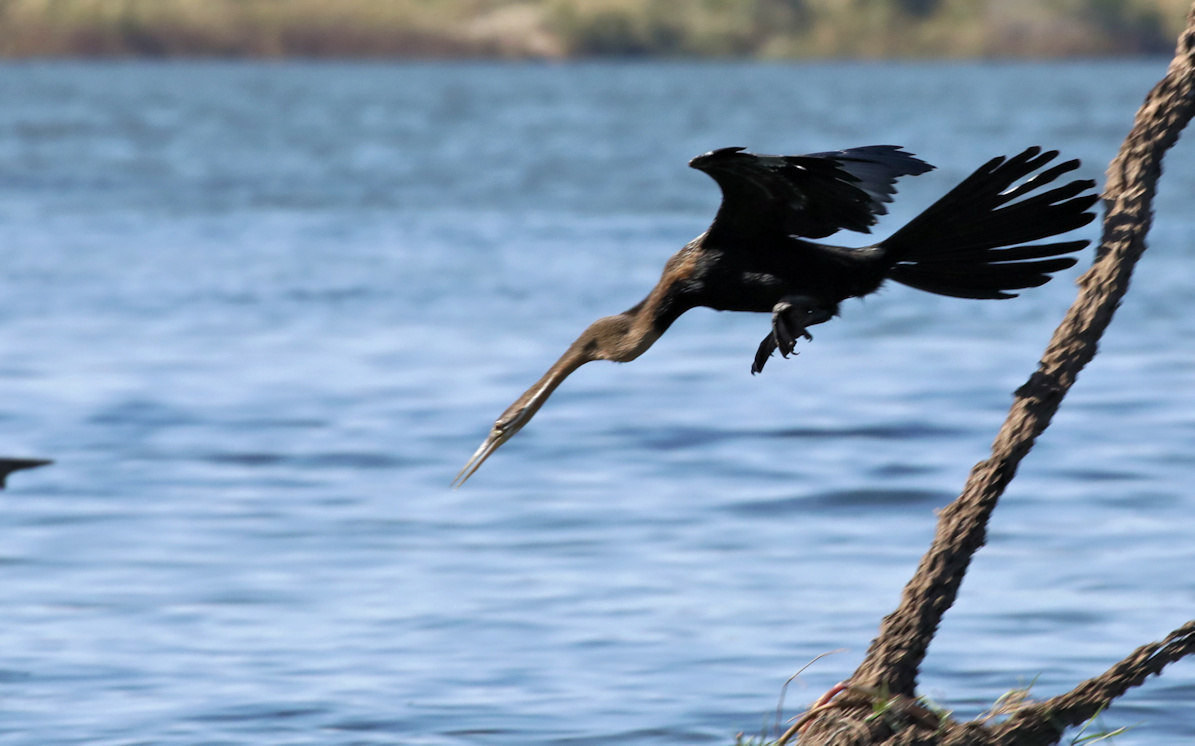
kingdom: Animalia
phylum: Chordata
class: Aves
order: Suliformes
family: Anhingidae
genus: Anhinga
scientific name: Anhinga rufa
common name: African darter
